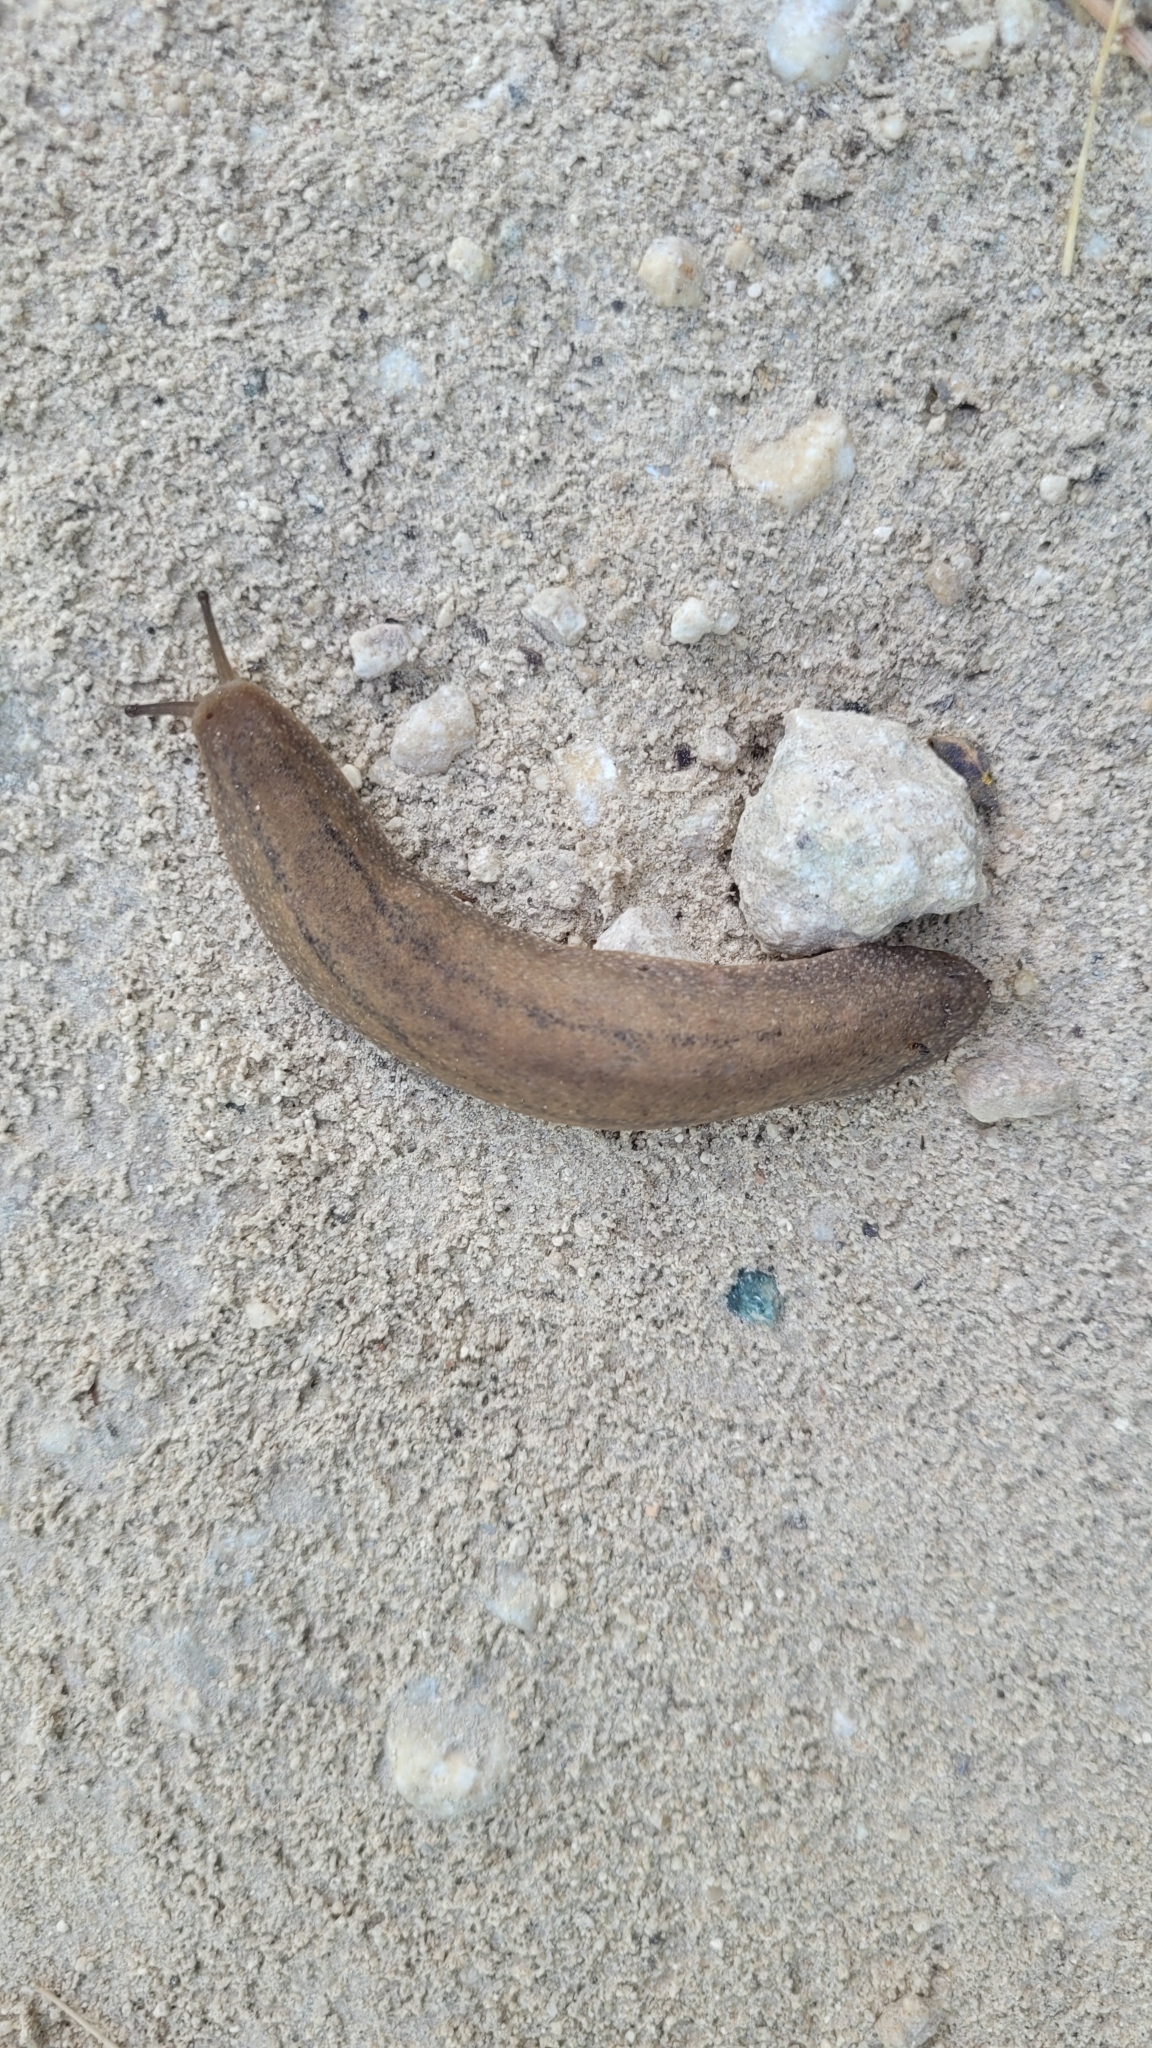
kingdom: Animalia
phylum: Mollusca
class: Gastropoda
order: Systellommatophora
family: Veronicellidae
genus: Leidyula
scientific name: Leidyula moreleti
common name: Tan leatherleaf
